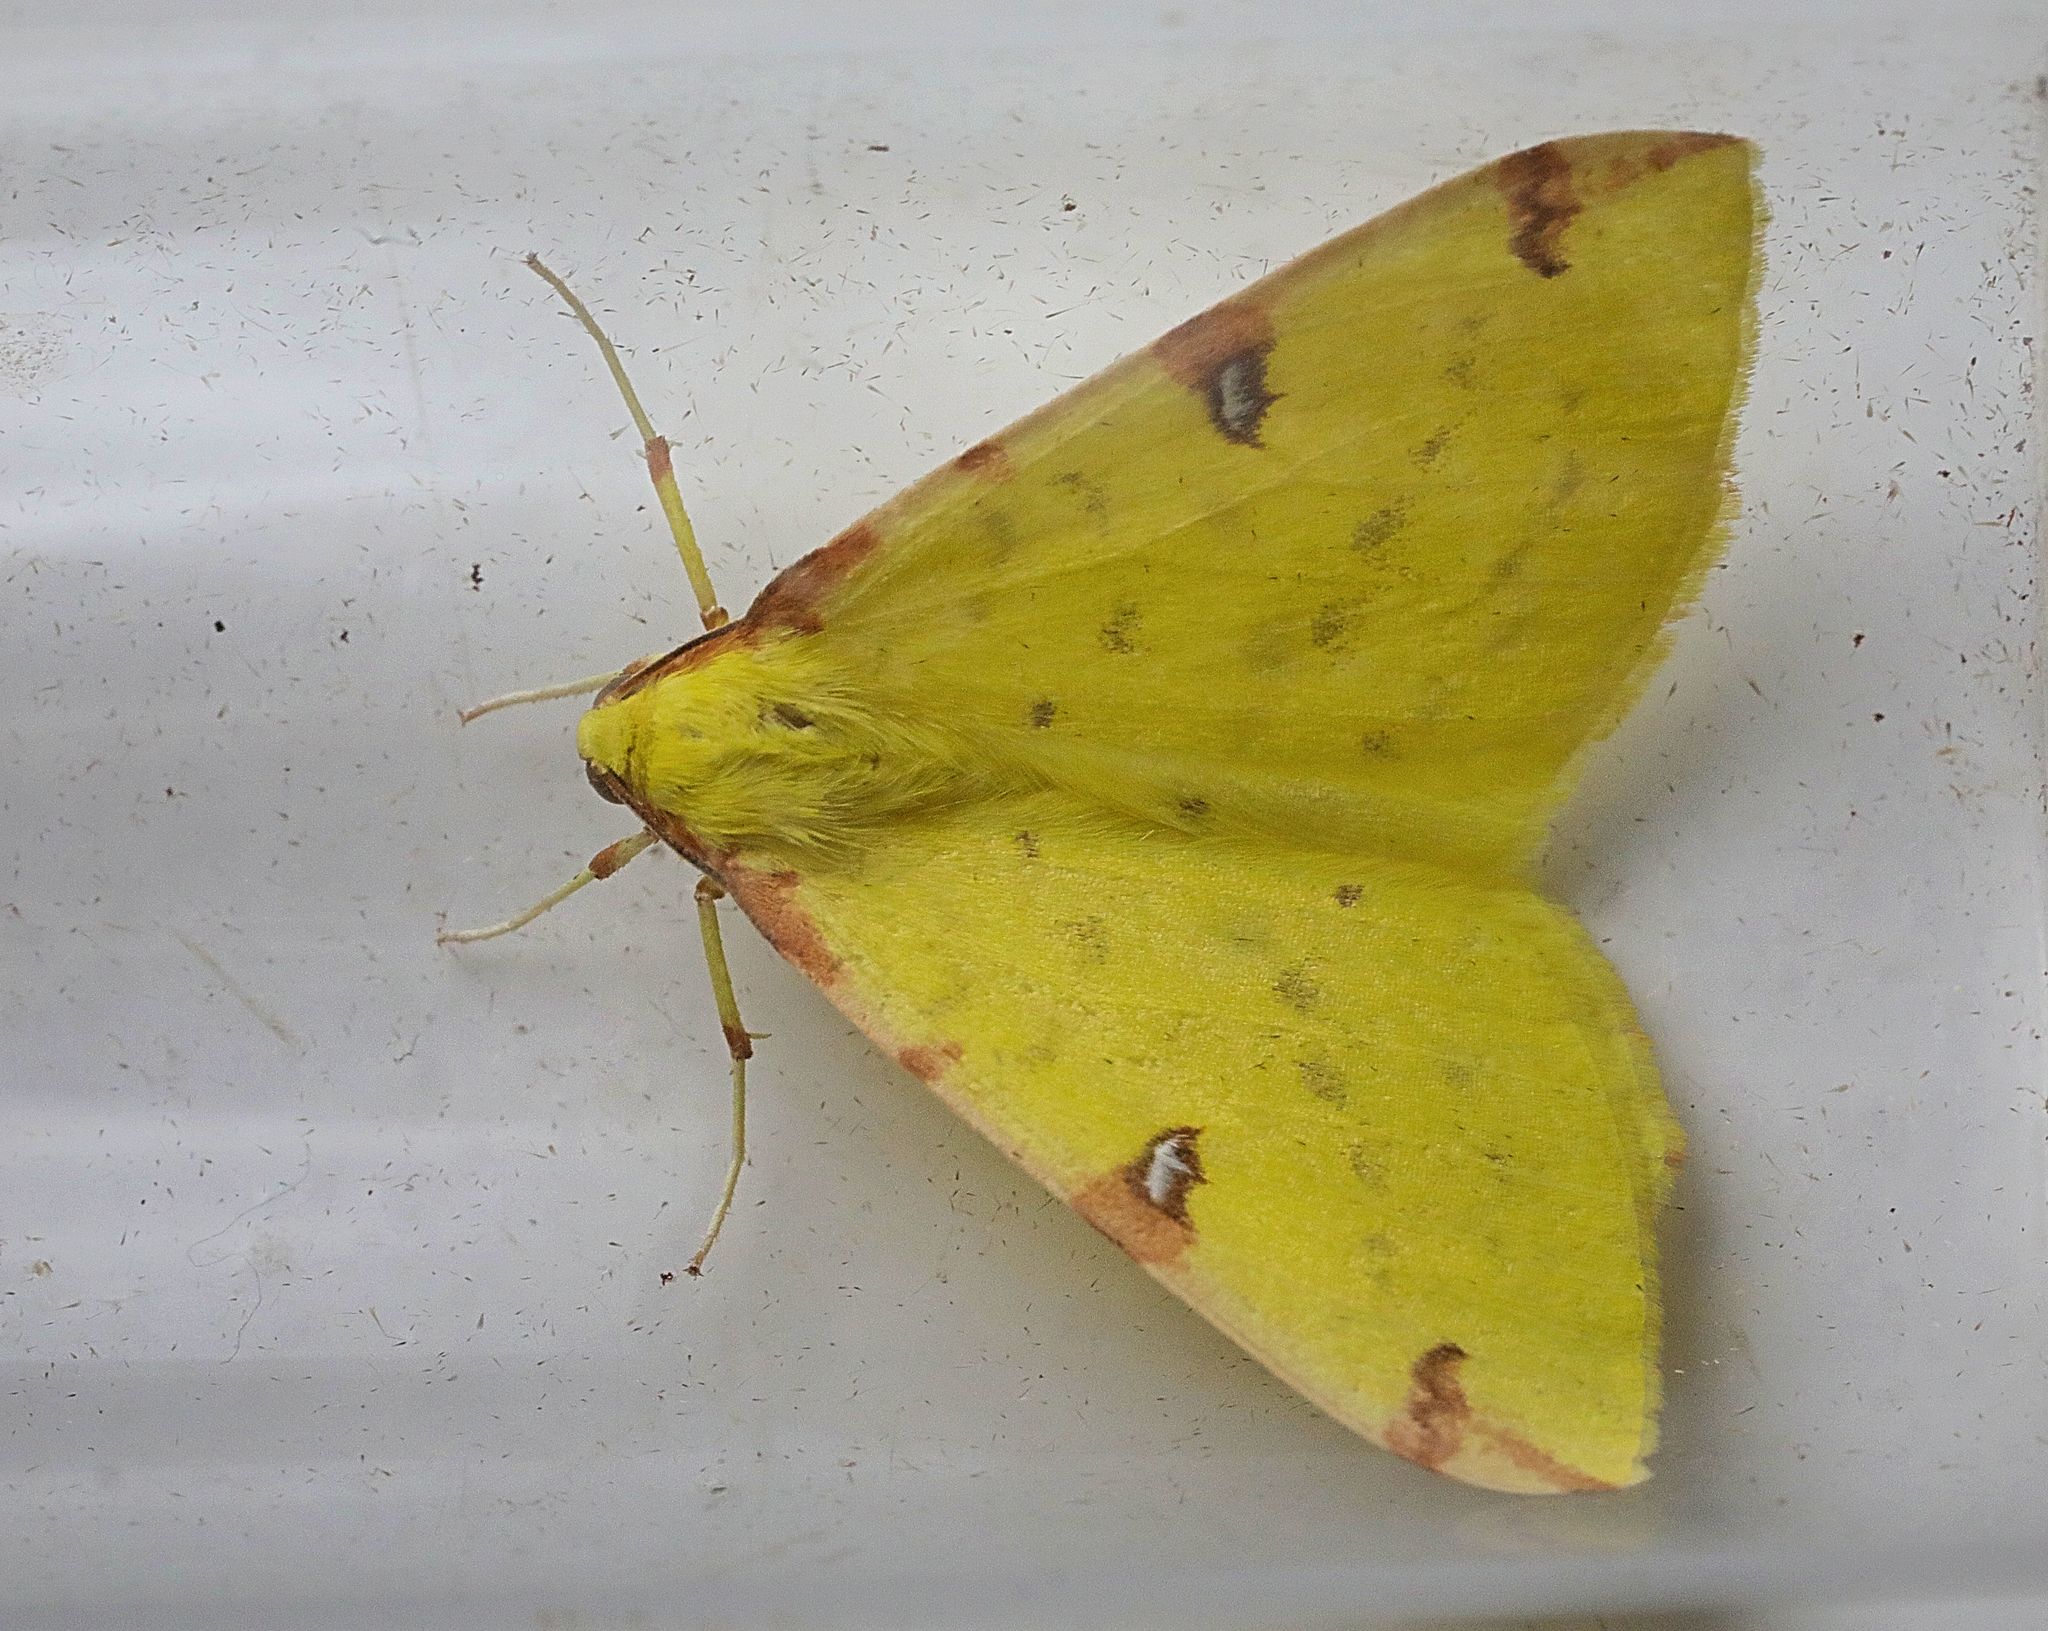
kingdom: Animalia
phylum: Arthropoda
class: Insecta
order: Lepidoptera
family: Geometridae
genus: Opisthograptis
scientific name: Opisthograptis luteolata
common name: Brimstone moth
